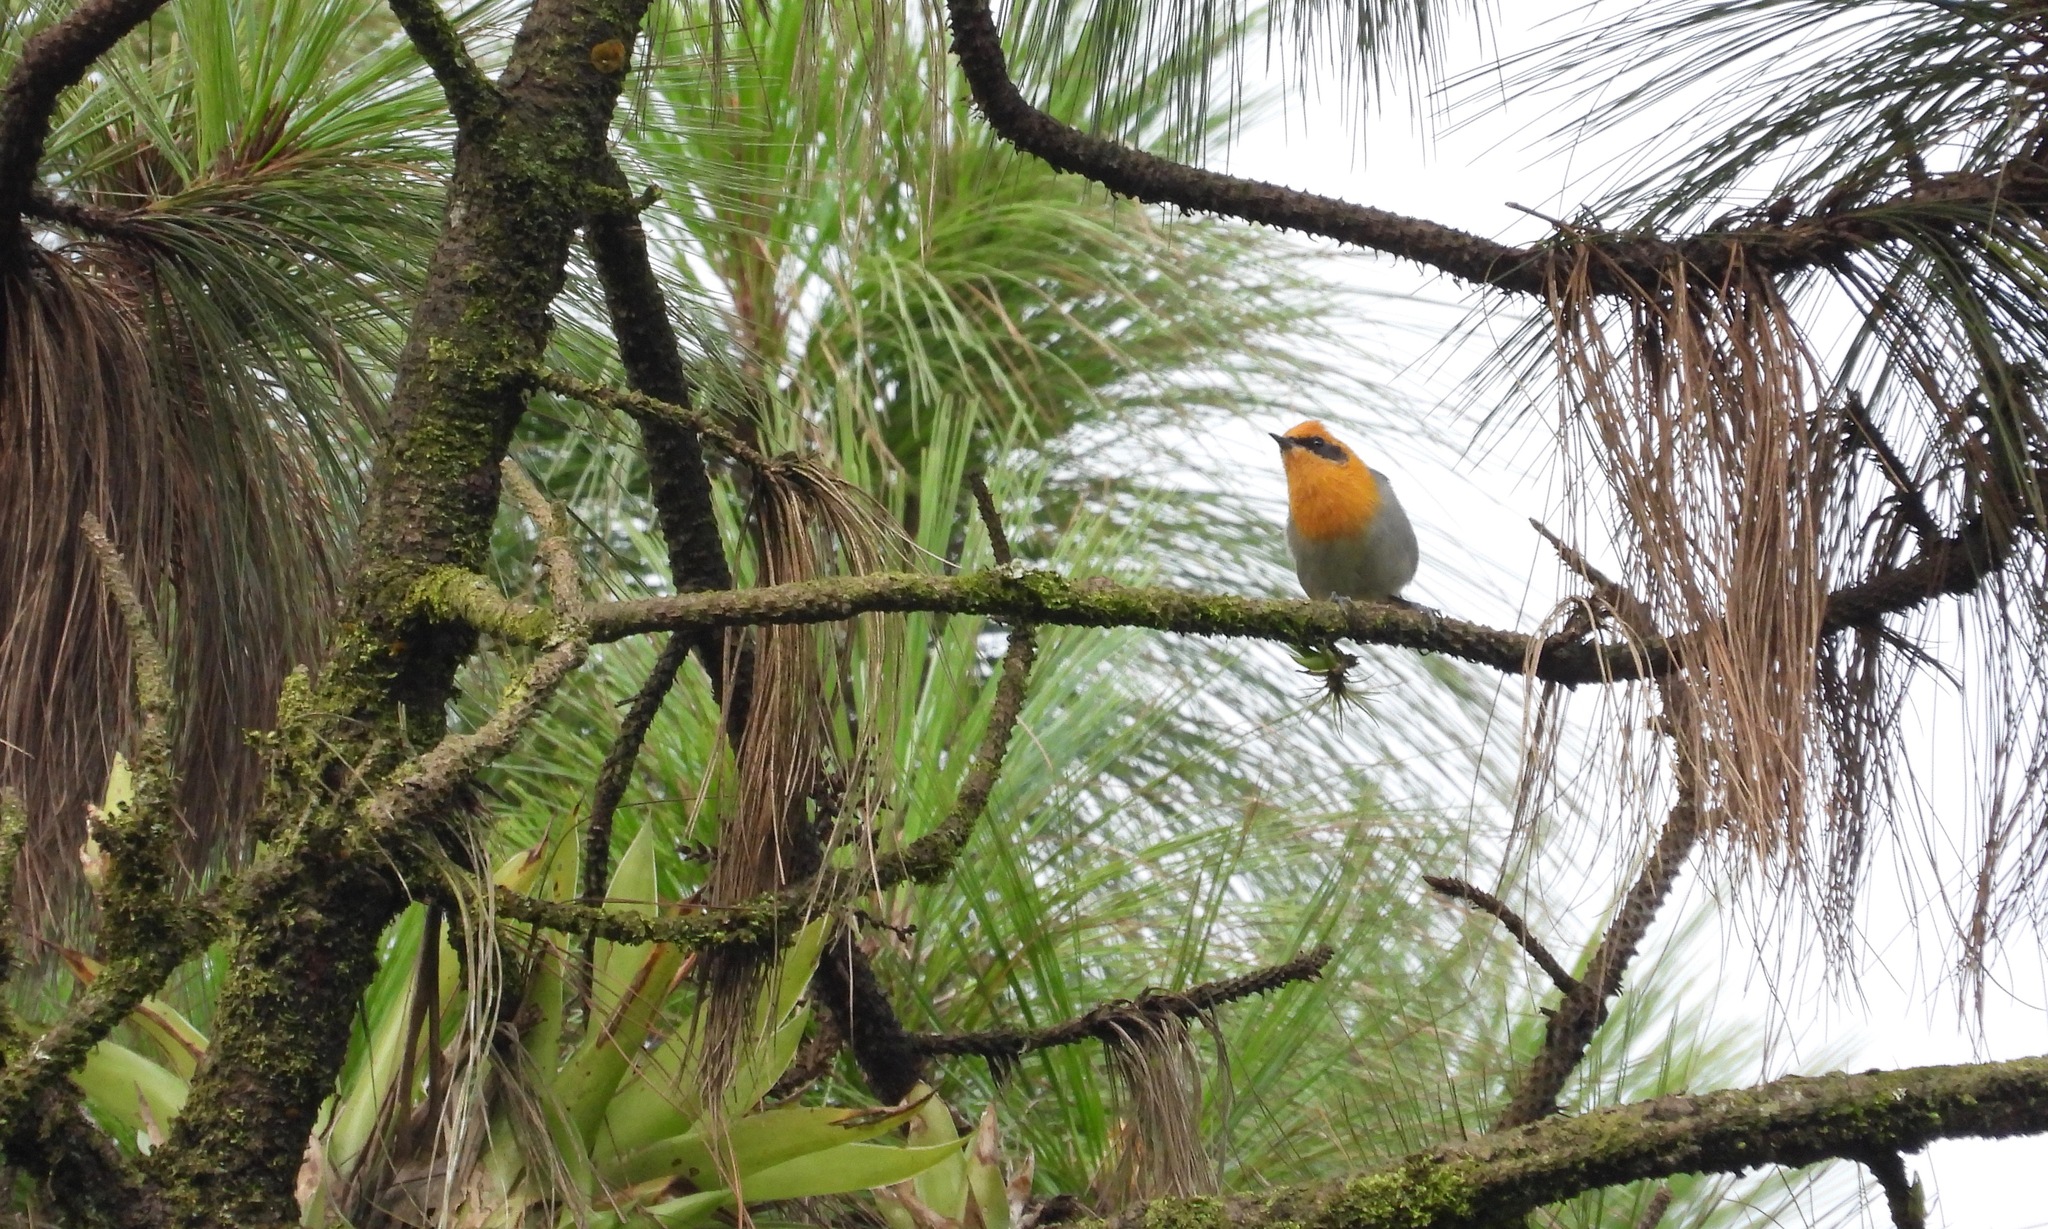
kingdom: Animalia
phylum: Chordata
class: Aves
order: Passeriformes
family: Peucedramidae
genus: Peucedramus
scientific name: Peucedramus taeniatus
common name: Olive warbler
